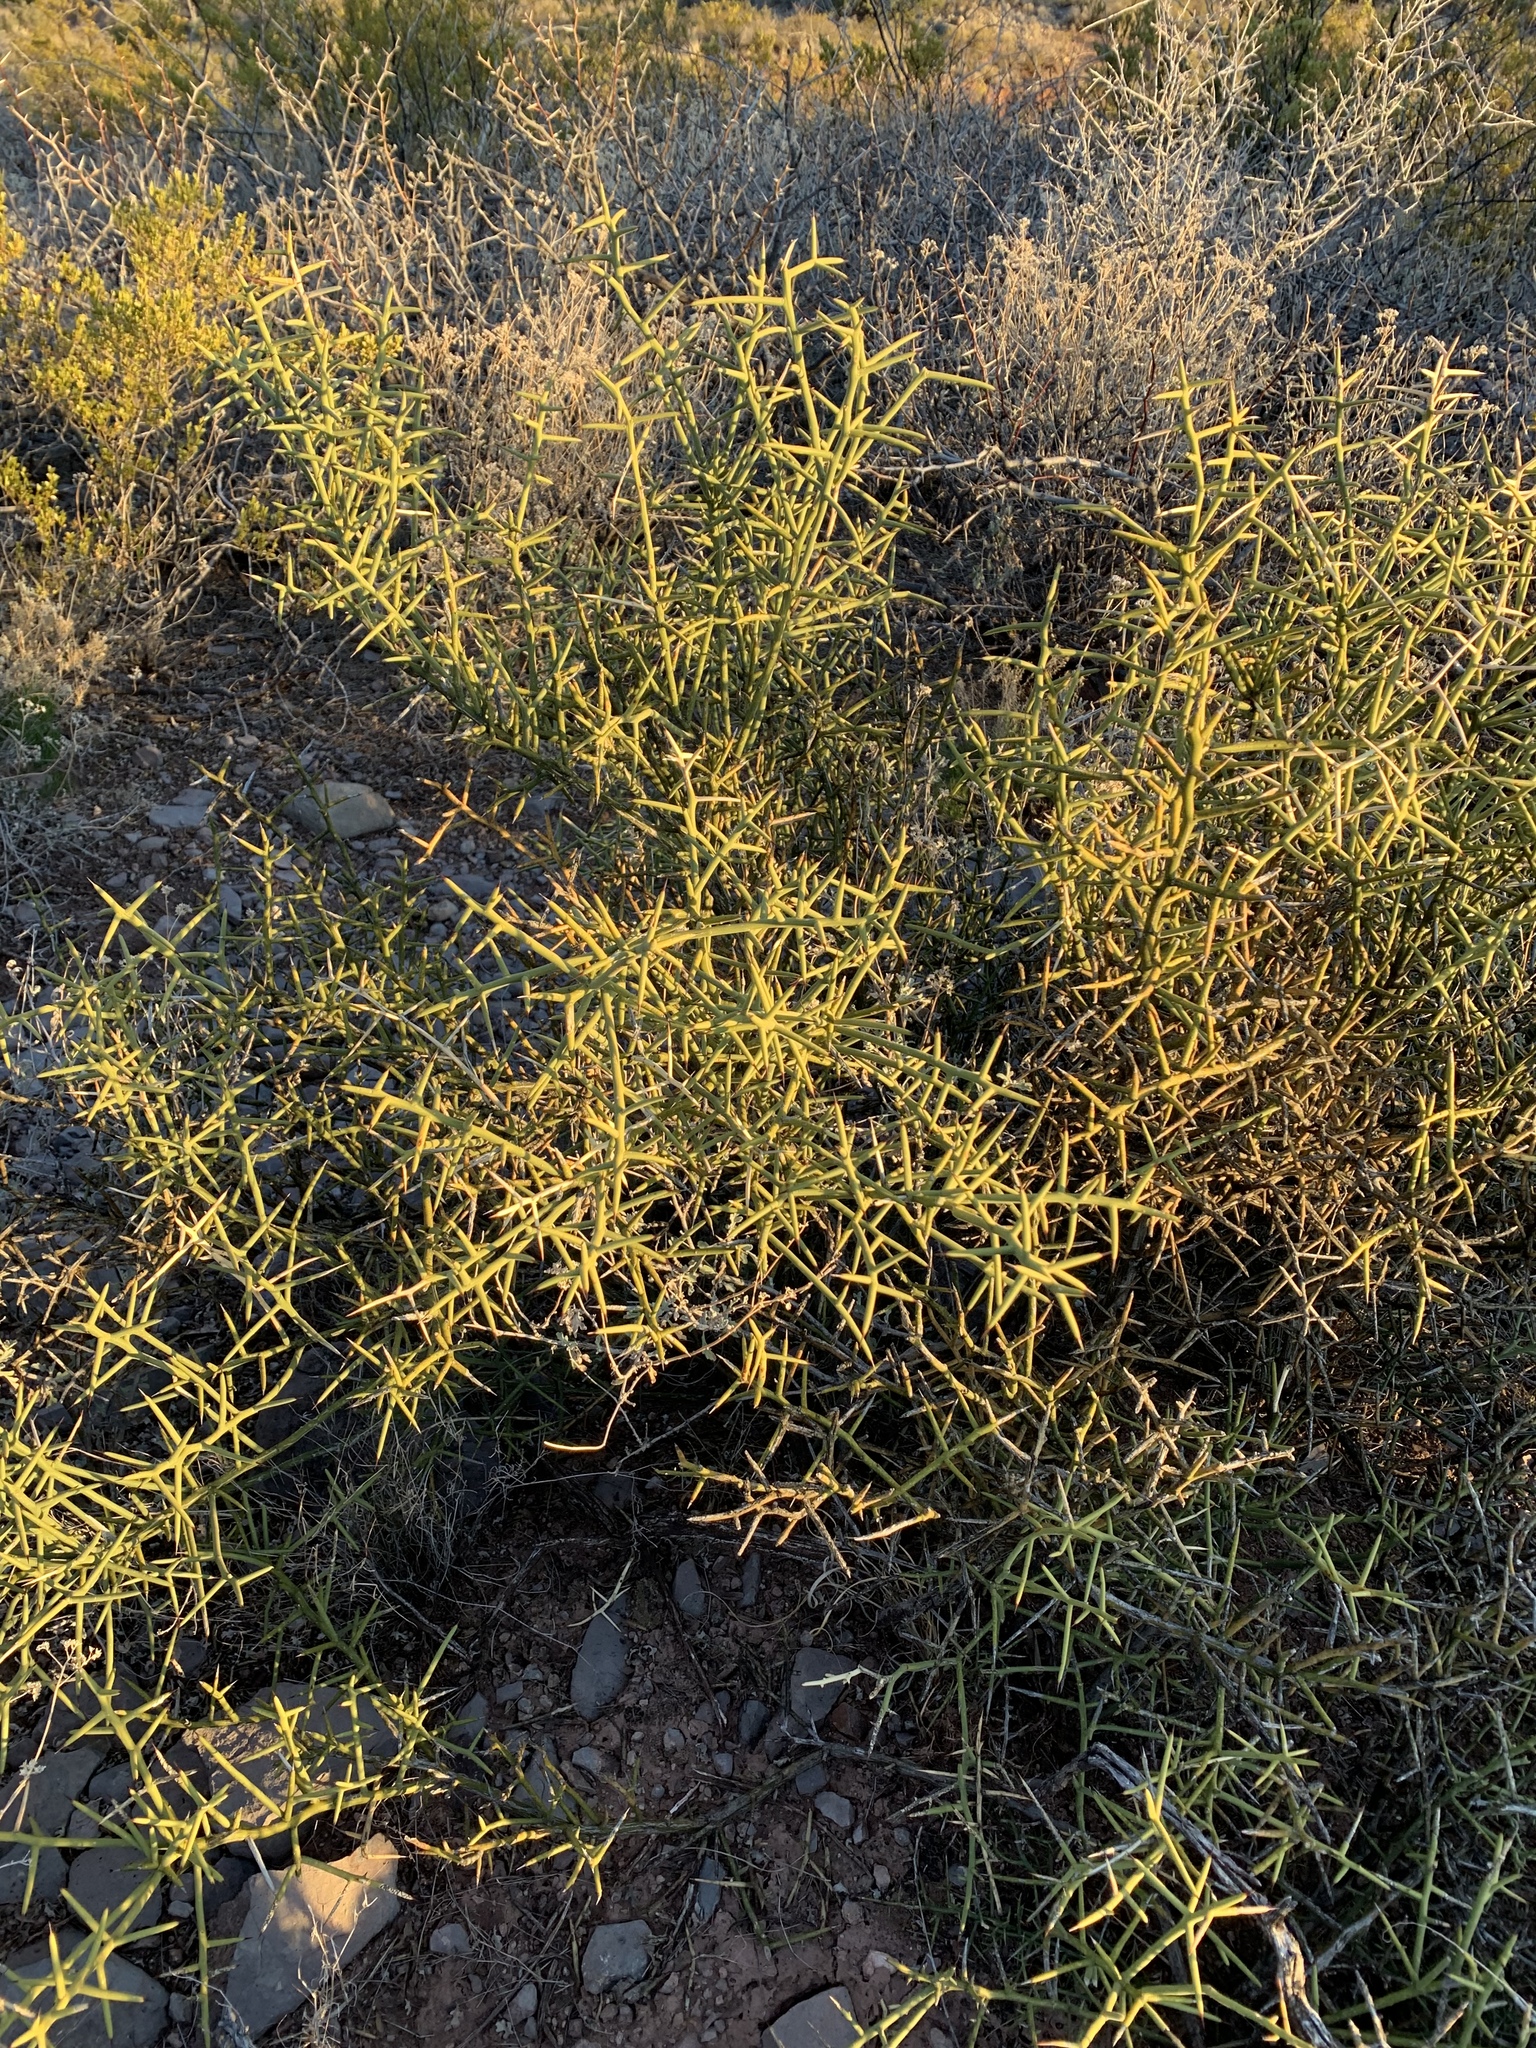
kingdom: Plantae
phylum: Tracheophyta
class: Magnoliopsida
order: Brassicales
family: Koeberliniaceae
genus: Koeberlinia
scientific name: Koeberlinia spinosa
